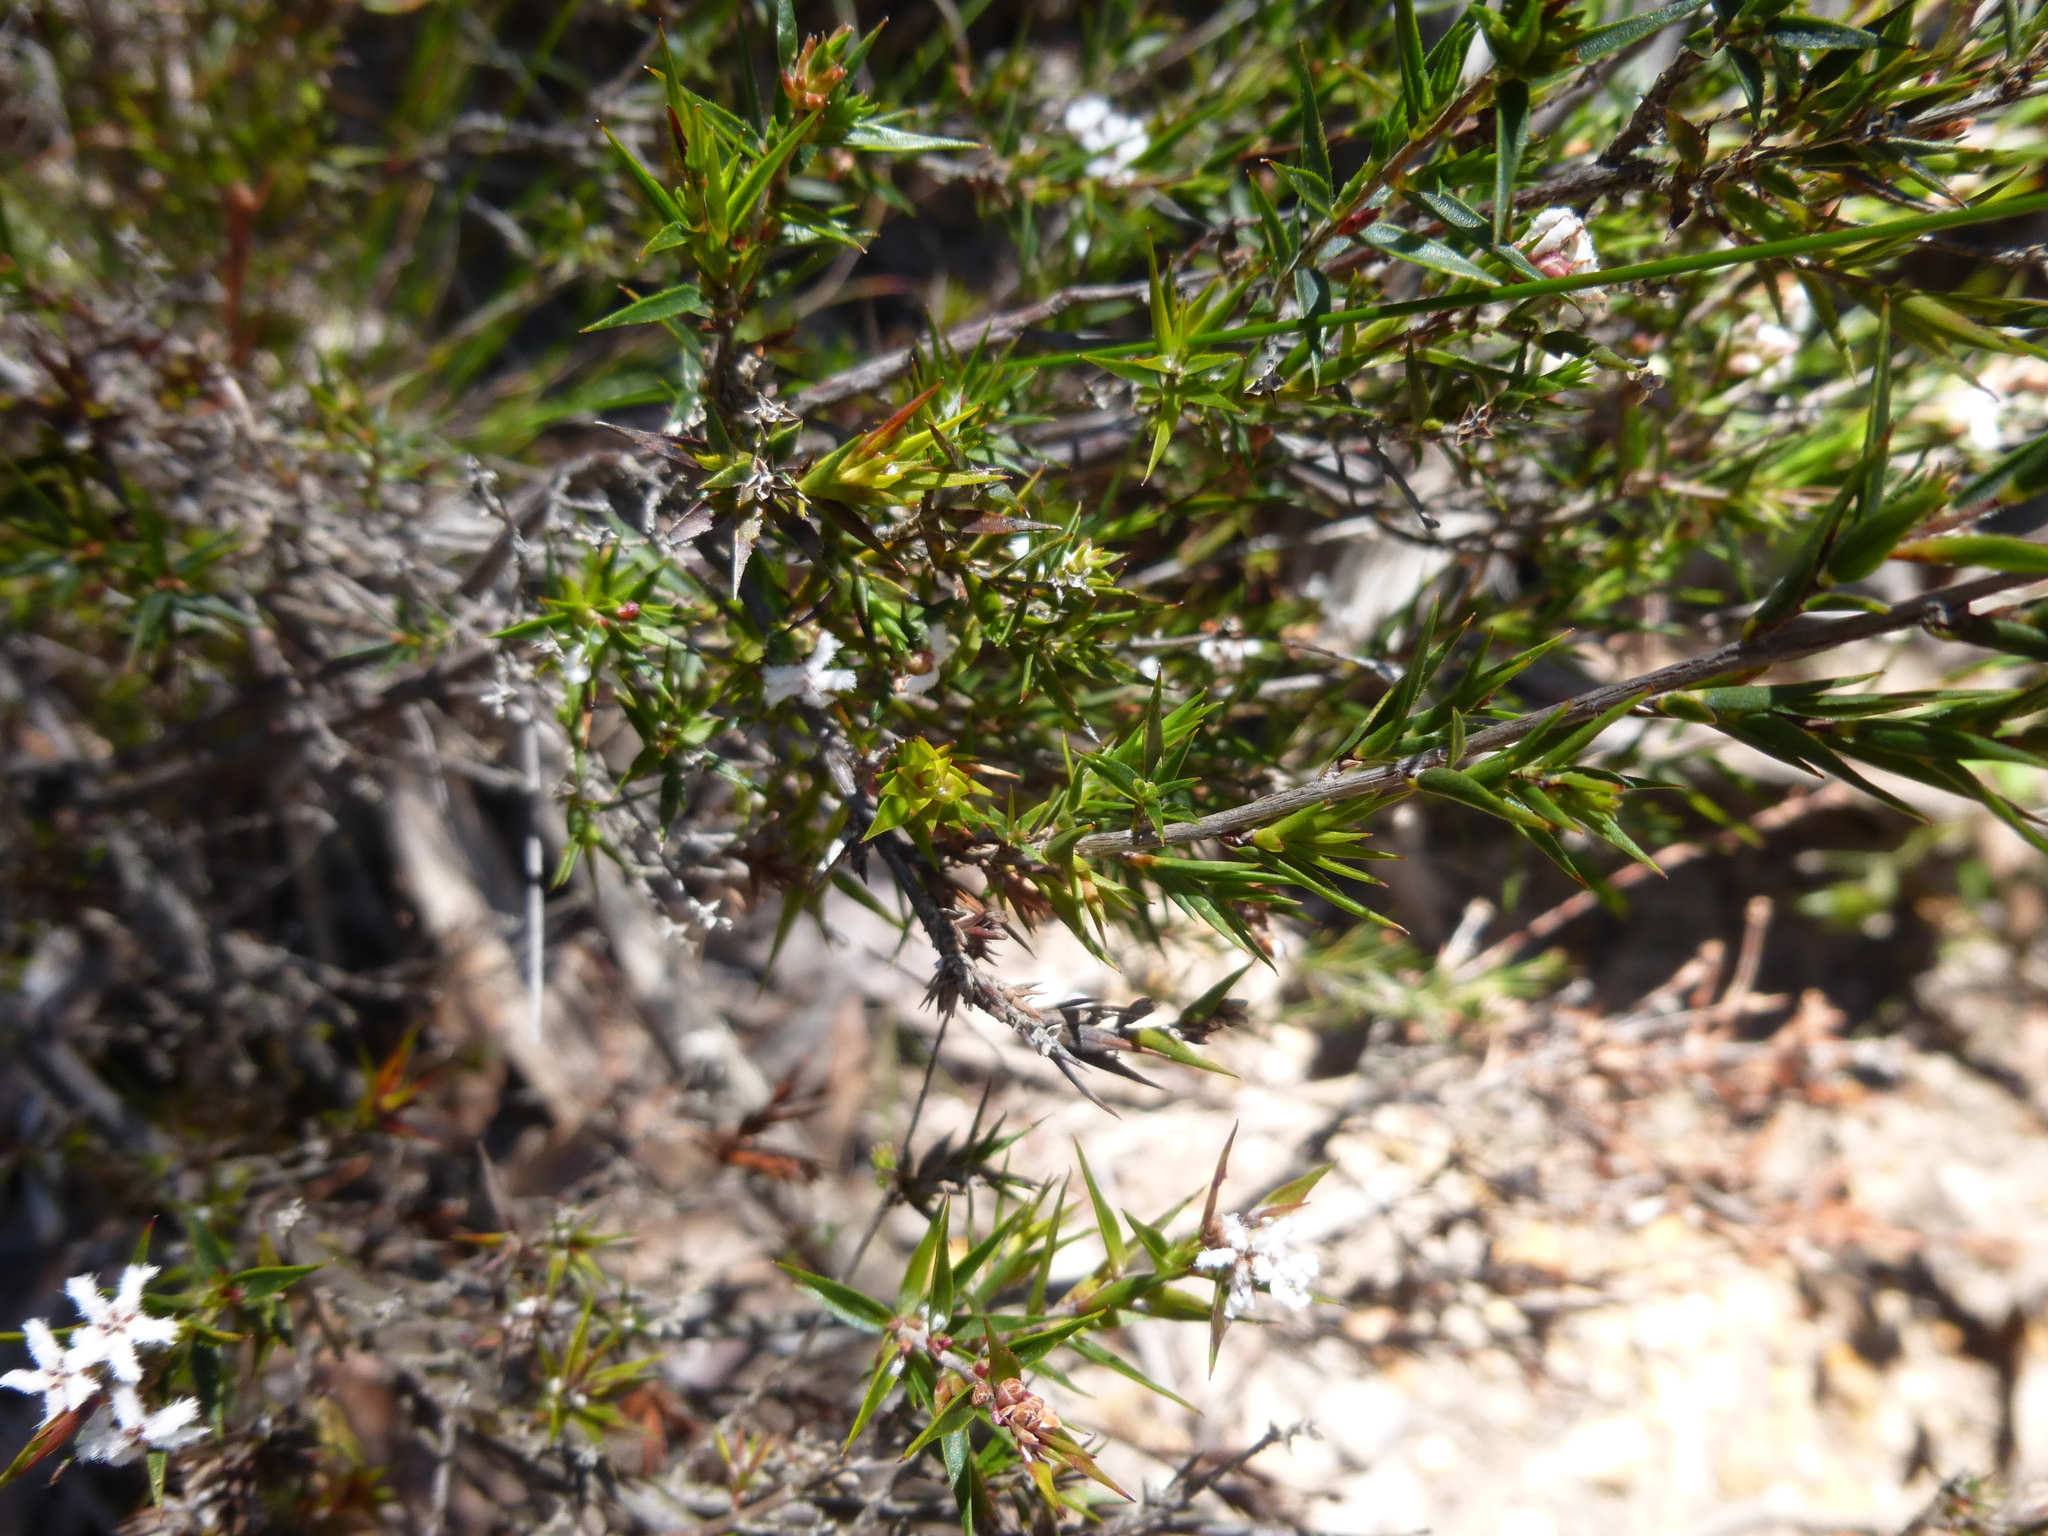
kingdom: Plantae
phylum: Tracheophyta
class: Magnoliopsida
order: Ericales
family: Ericaceae
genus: Leucopogon
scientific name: Leucopogon virgatus
